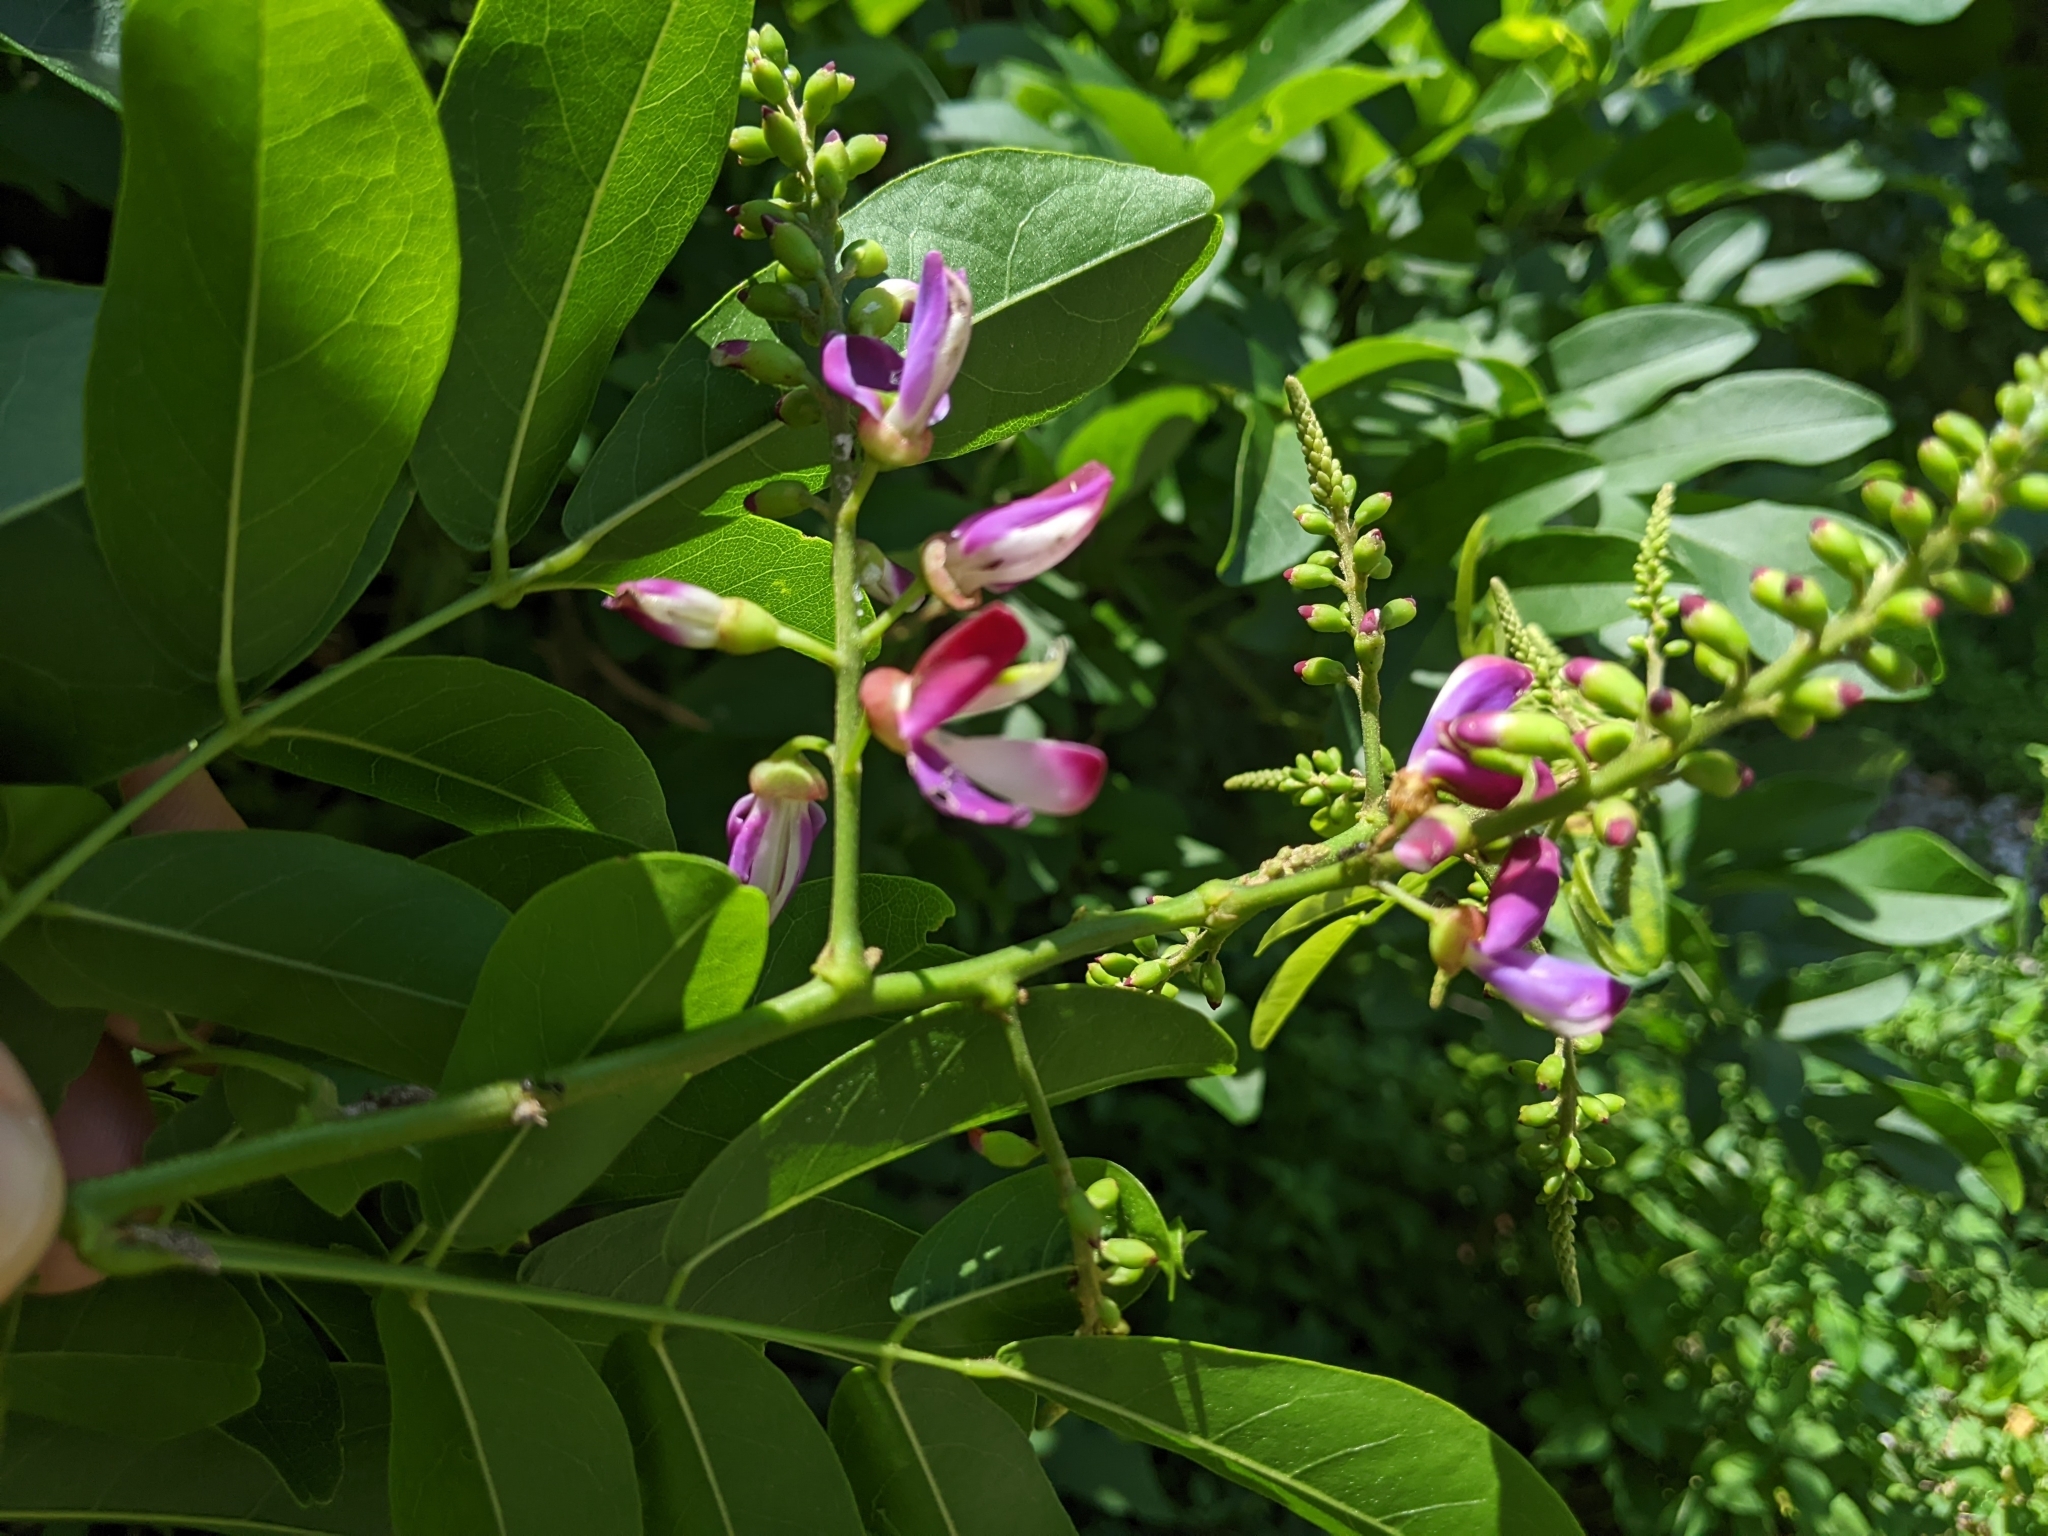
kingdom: Plantae
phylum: Tracheophyta
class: Magnoliopsida
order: Fabales
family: Fabaceae
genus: Wisteriopsis
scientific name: Wisteriopsis reticulata
